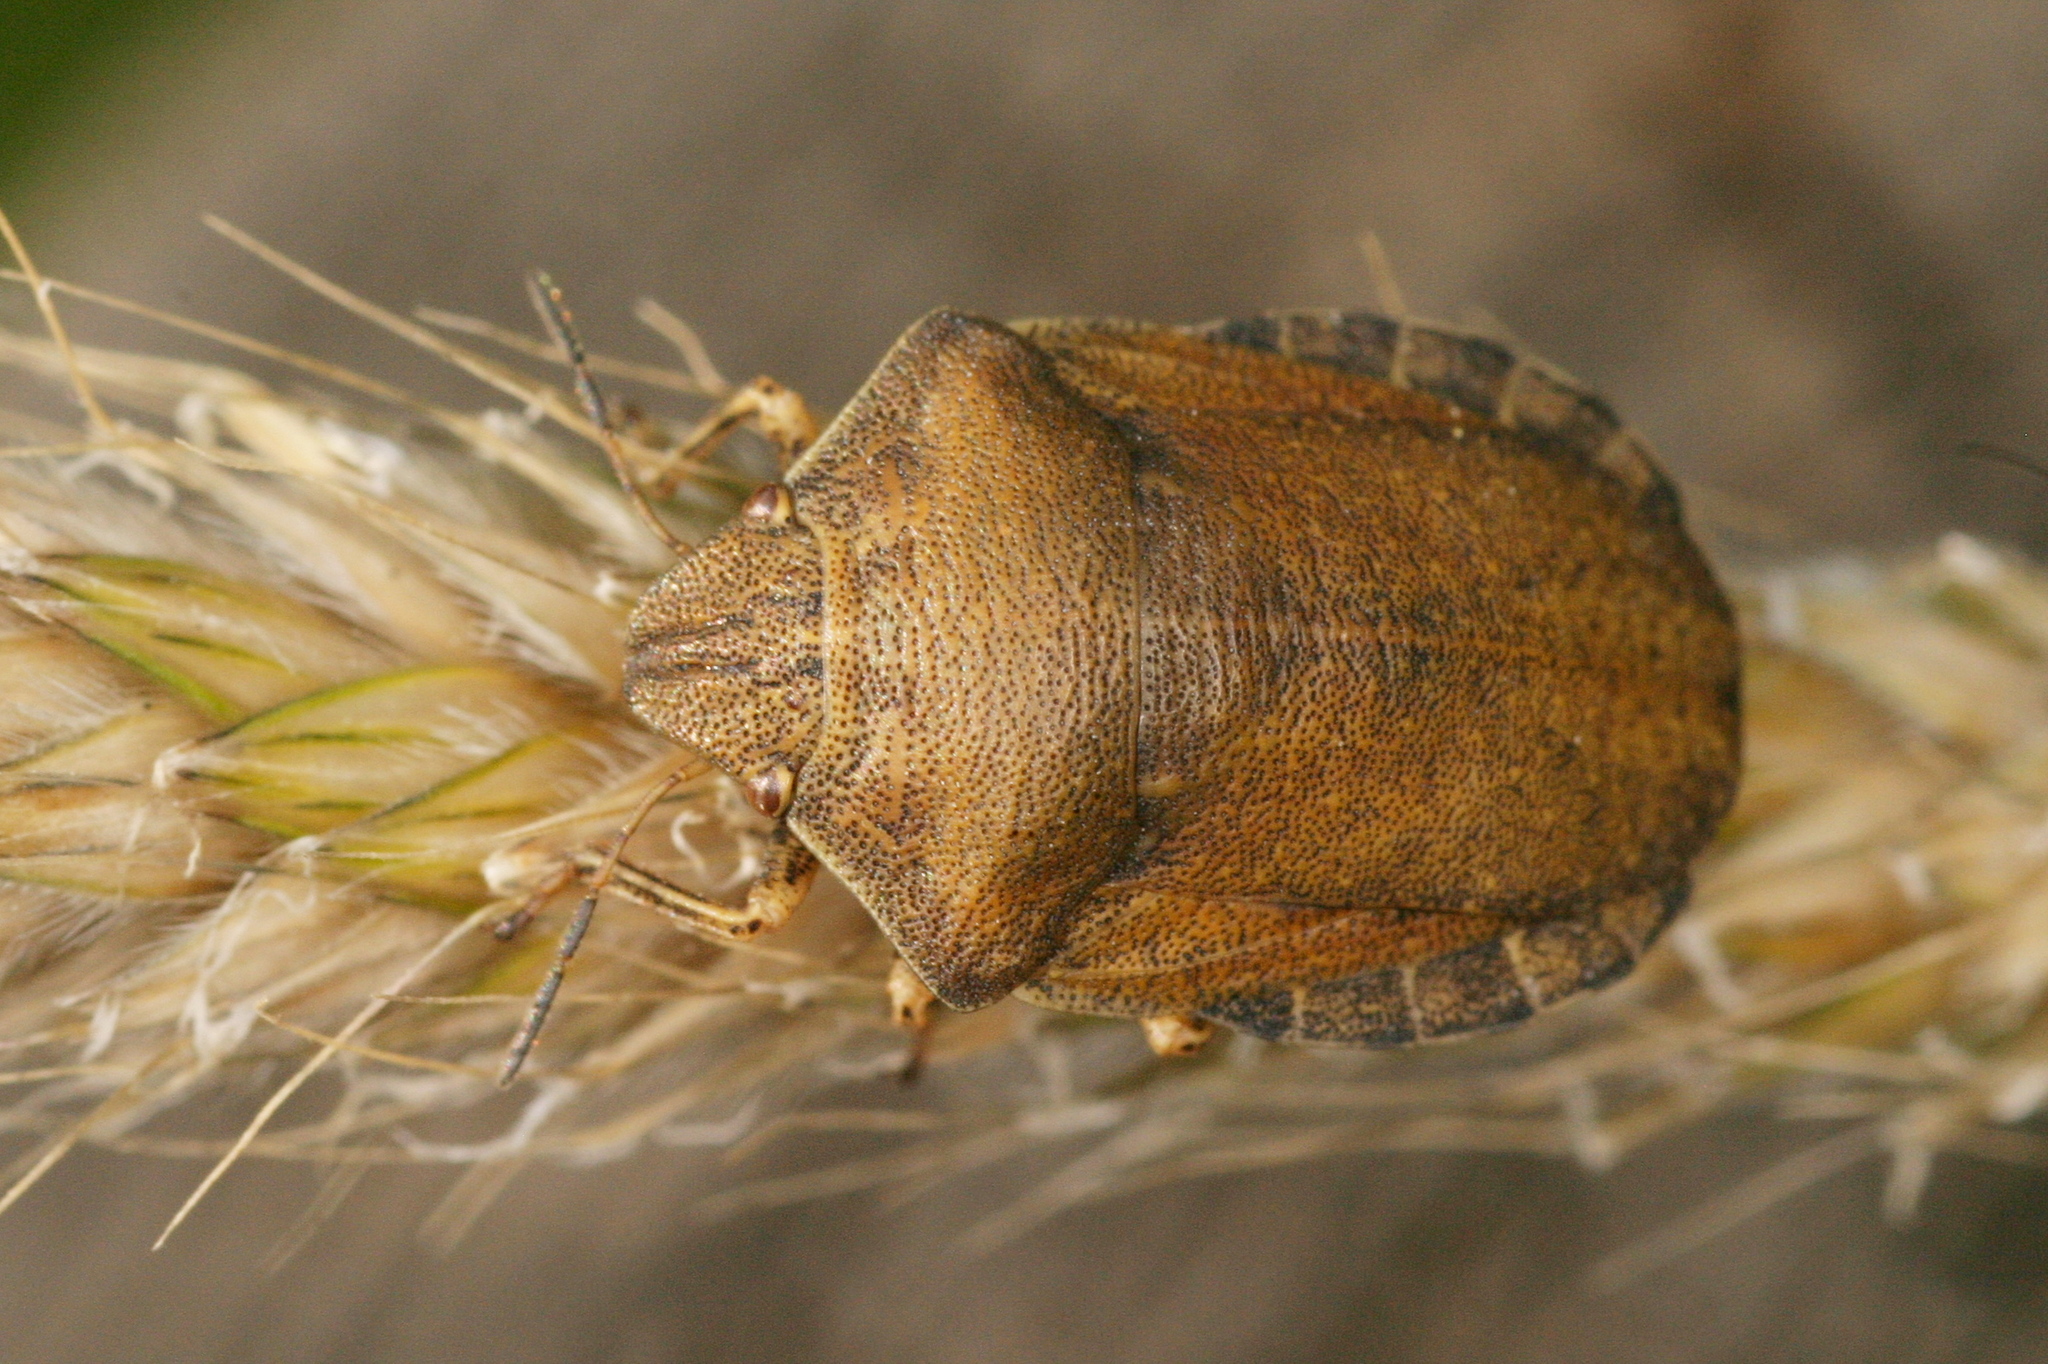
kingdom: Animalia
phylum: Arthropoda
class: Insecta
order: Hemiptera
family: Scutelleridae
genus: Eurygaster
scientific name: Eurygaster testudinaria
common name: Tortoise bug
